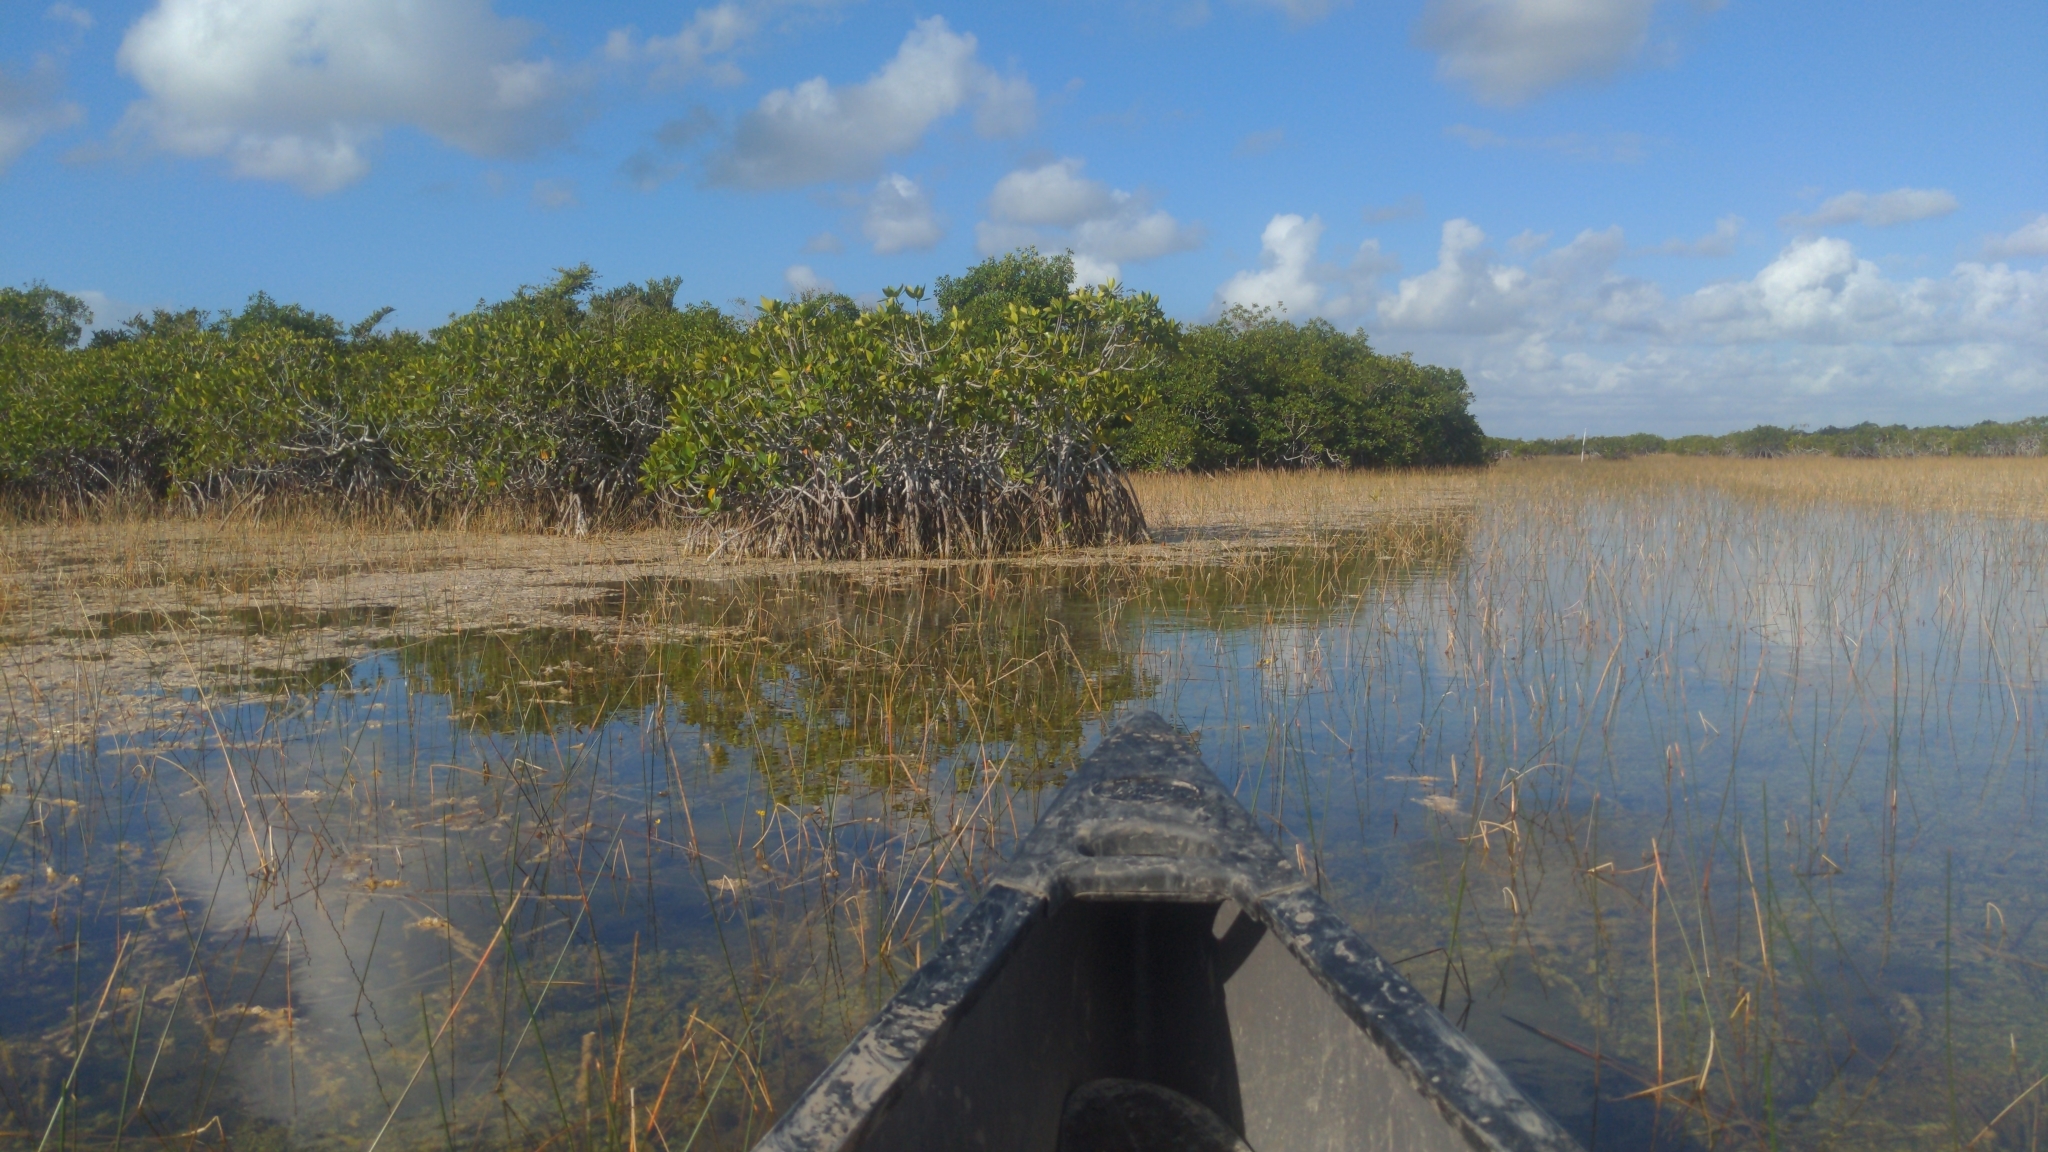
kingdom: Plantae
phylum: Tracheophyta
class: Magnoliopsida
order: Malpighiales
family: Rhizophoraceae
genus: Rhizophora
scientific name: Rhizophora mangle
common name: Red mangrove
